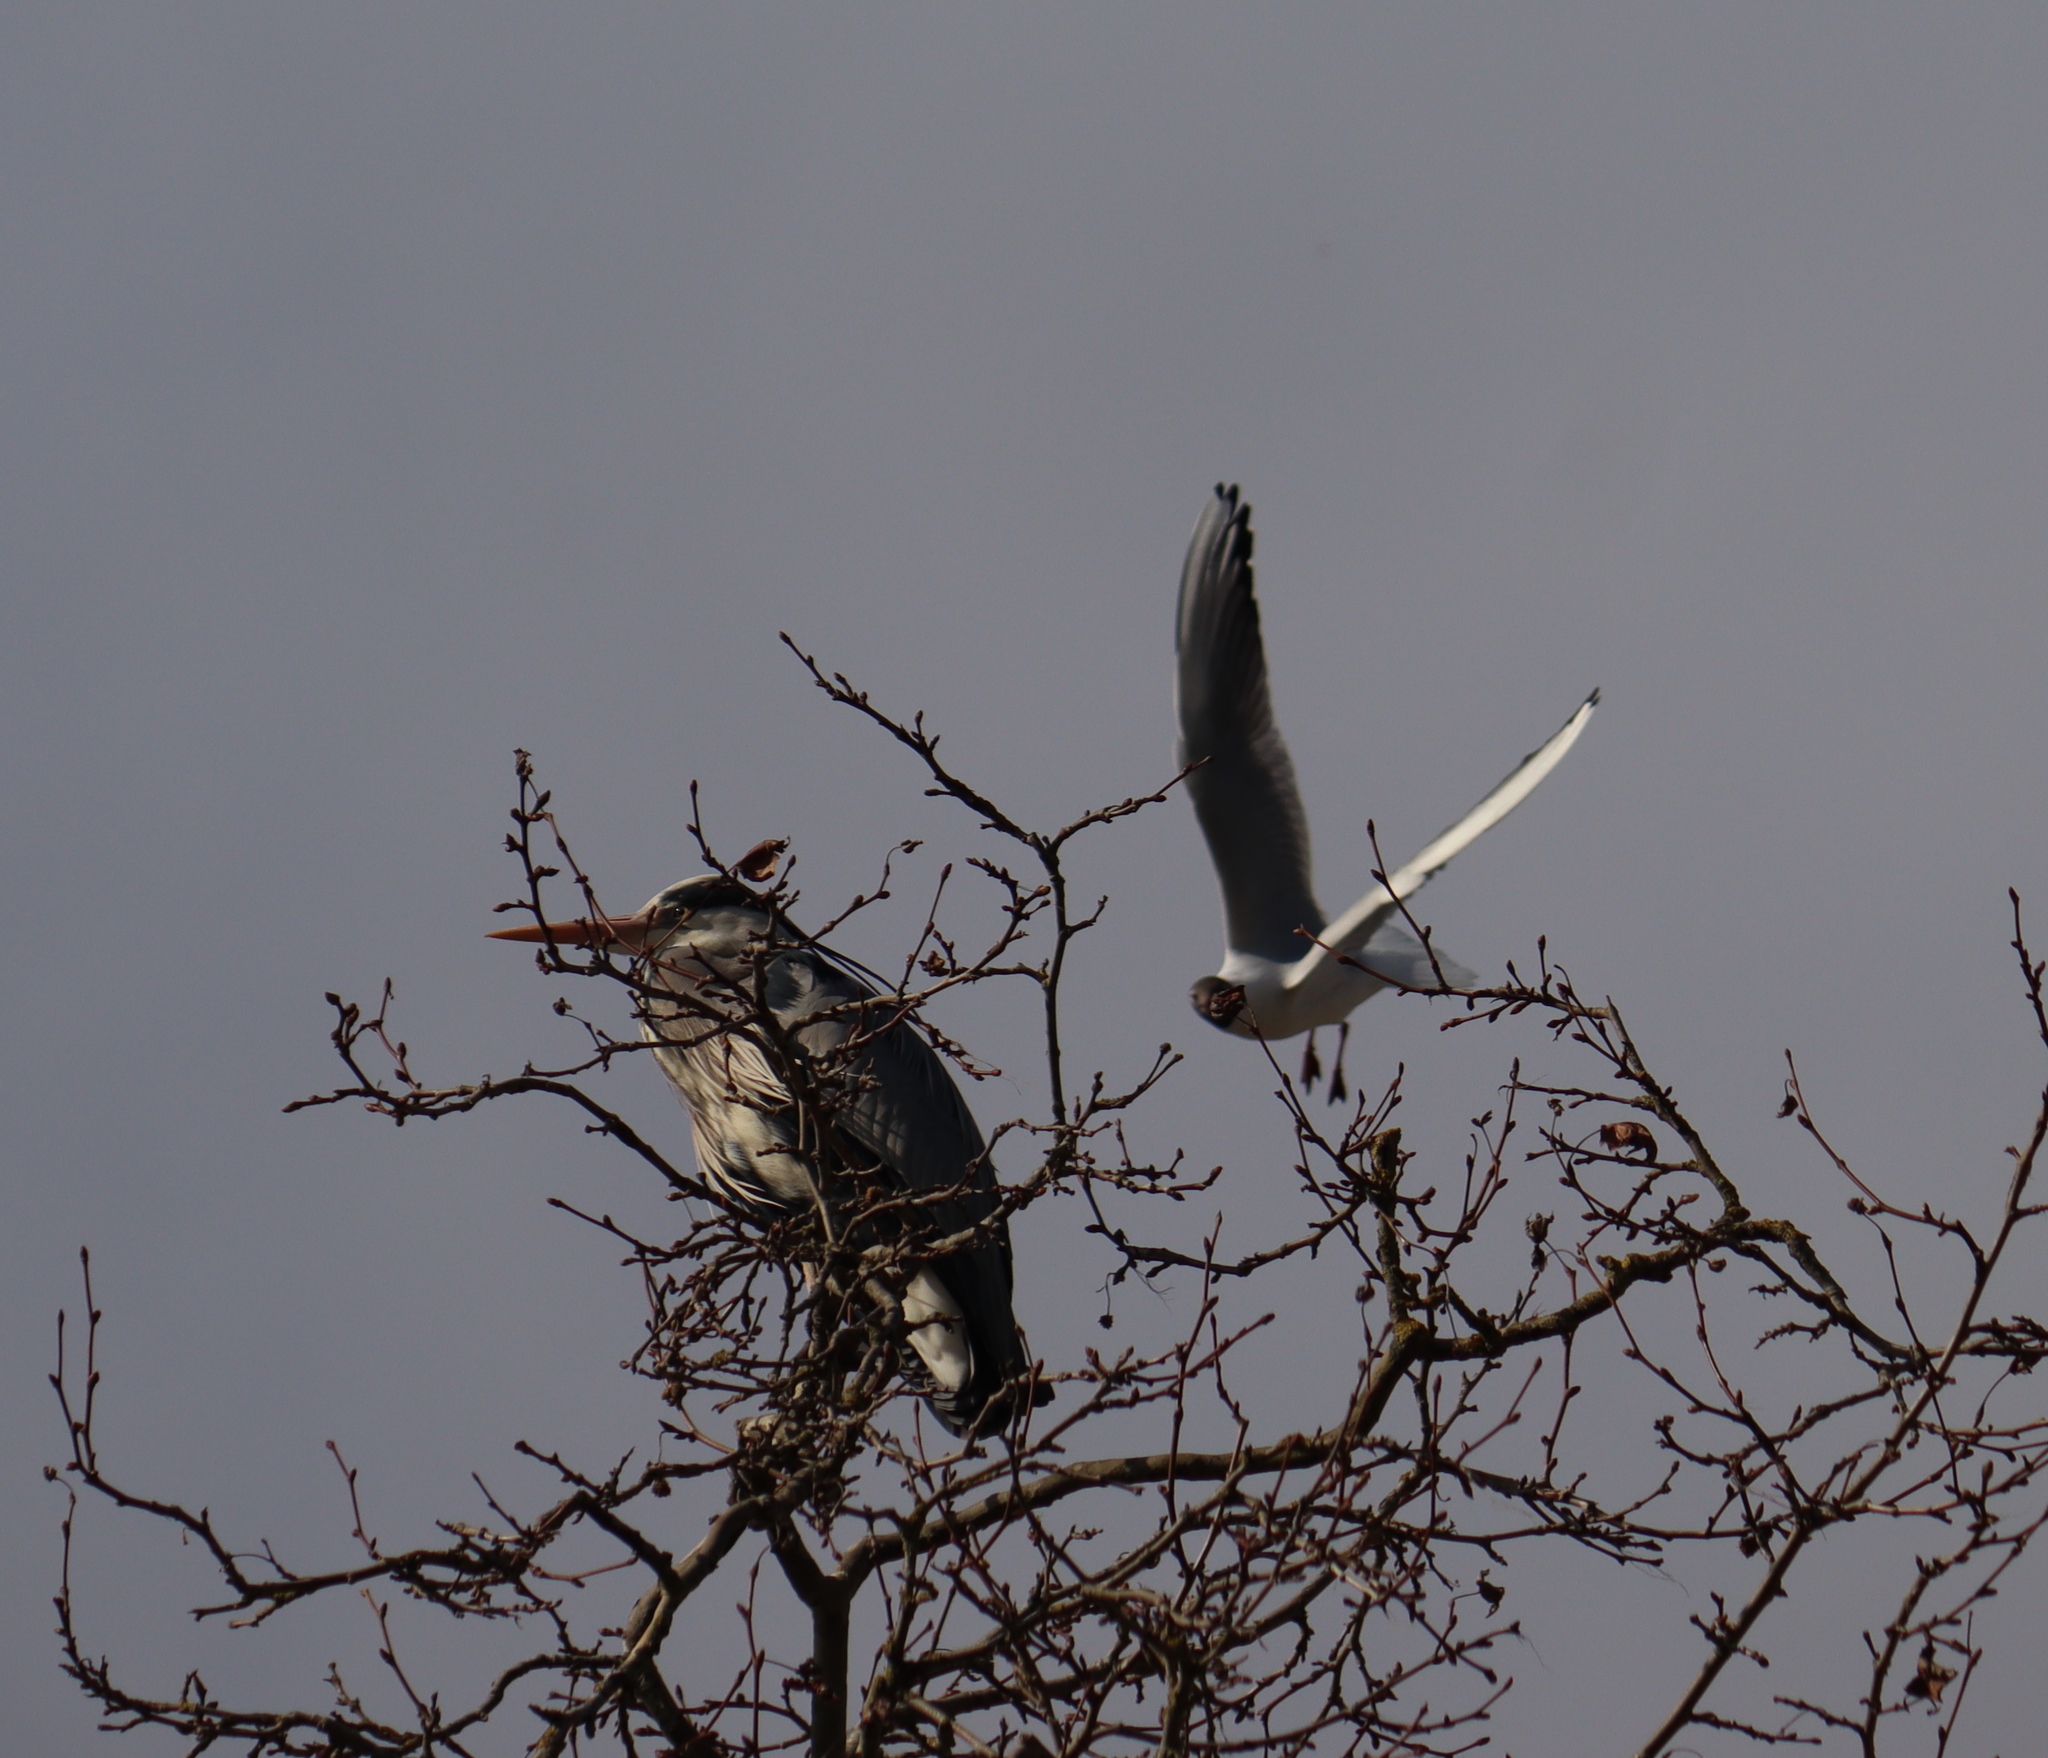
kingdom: Animalia
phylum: Chordata
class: Aves
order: Pelecaniformes
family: Ardeidae
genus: Ardea
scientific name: Ardea cinerea
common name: Grey heron
